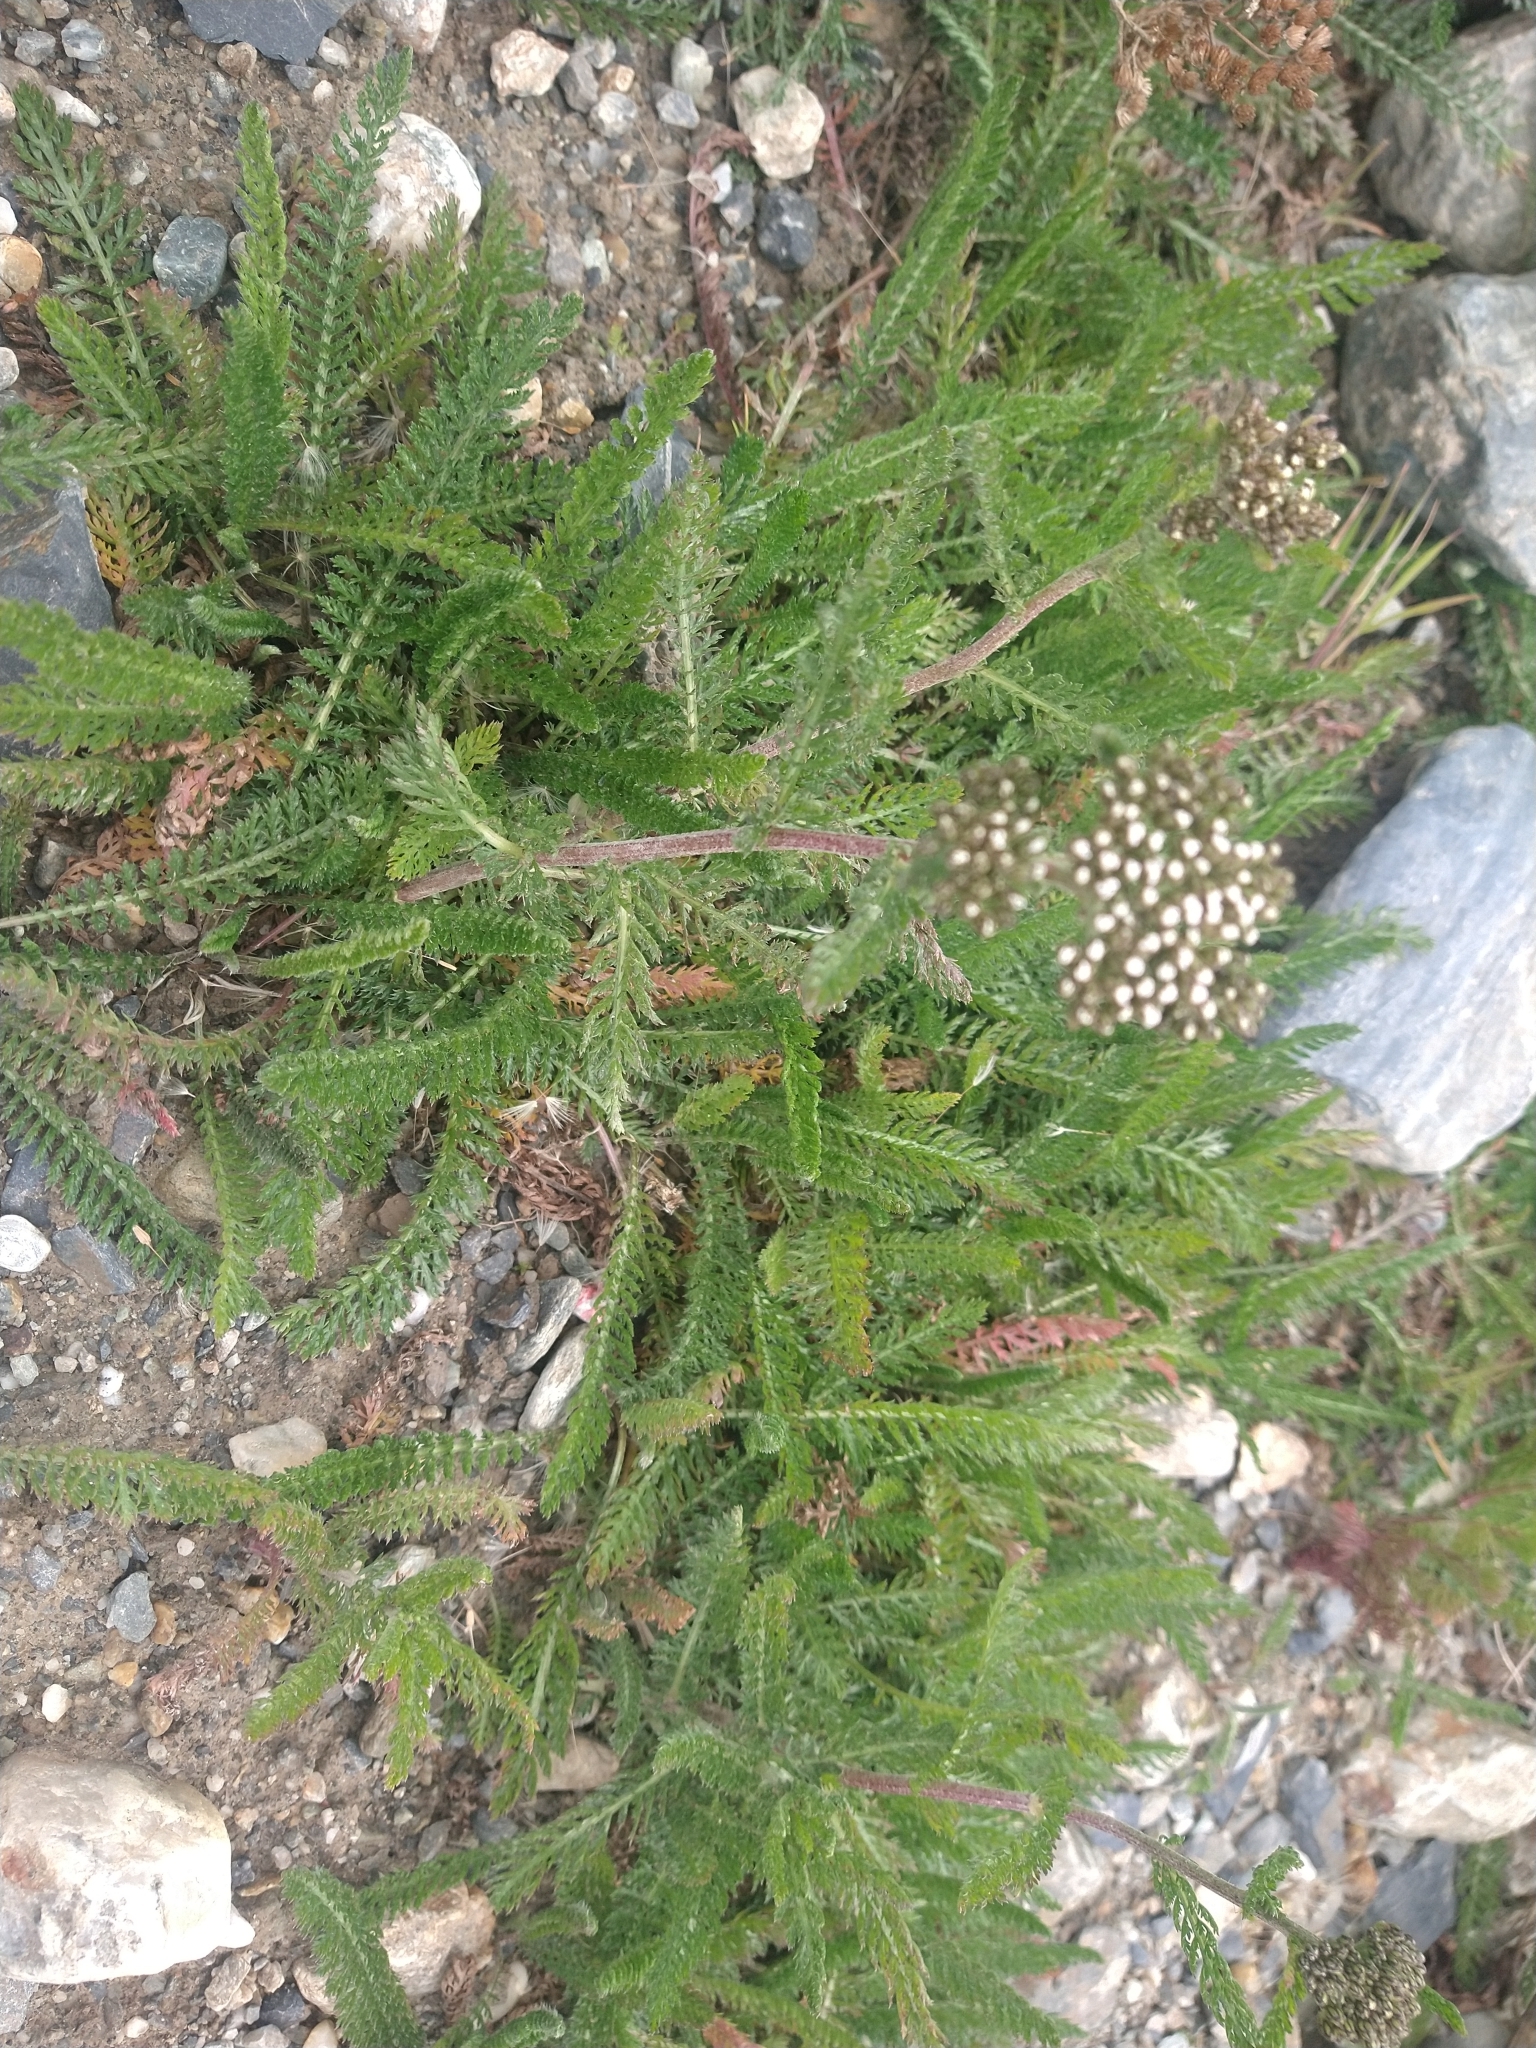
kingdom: Plantae
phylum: Tracheophyta
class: Magnoliopsida
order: Asterales
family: Asteraceae
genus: Achillea
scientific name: Achillea millefolium
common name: Yarrow
